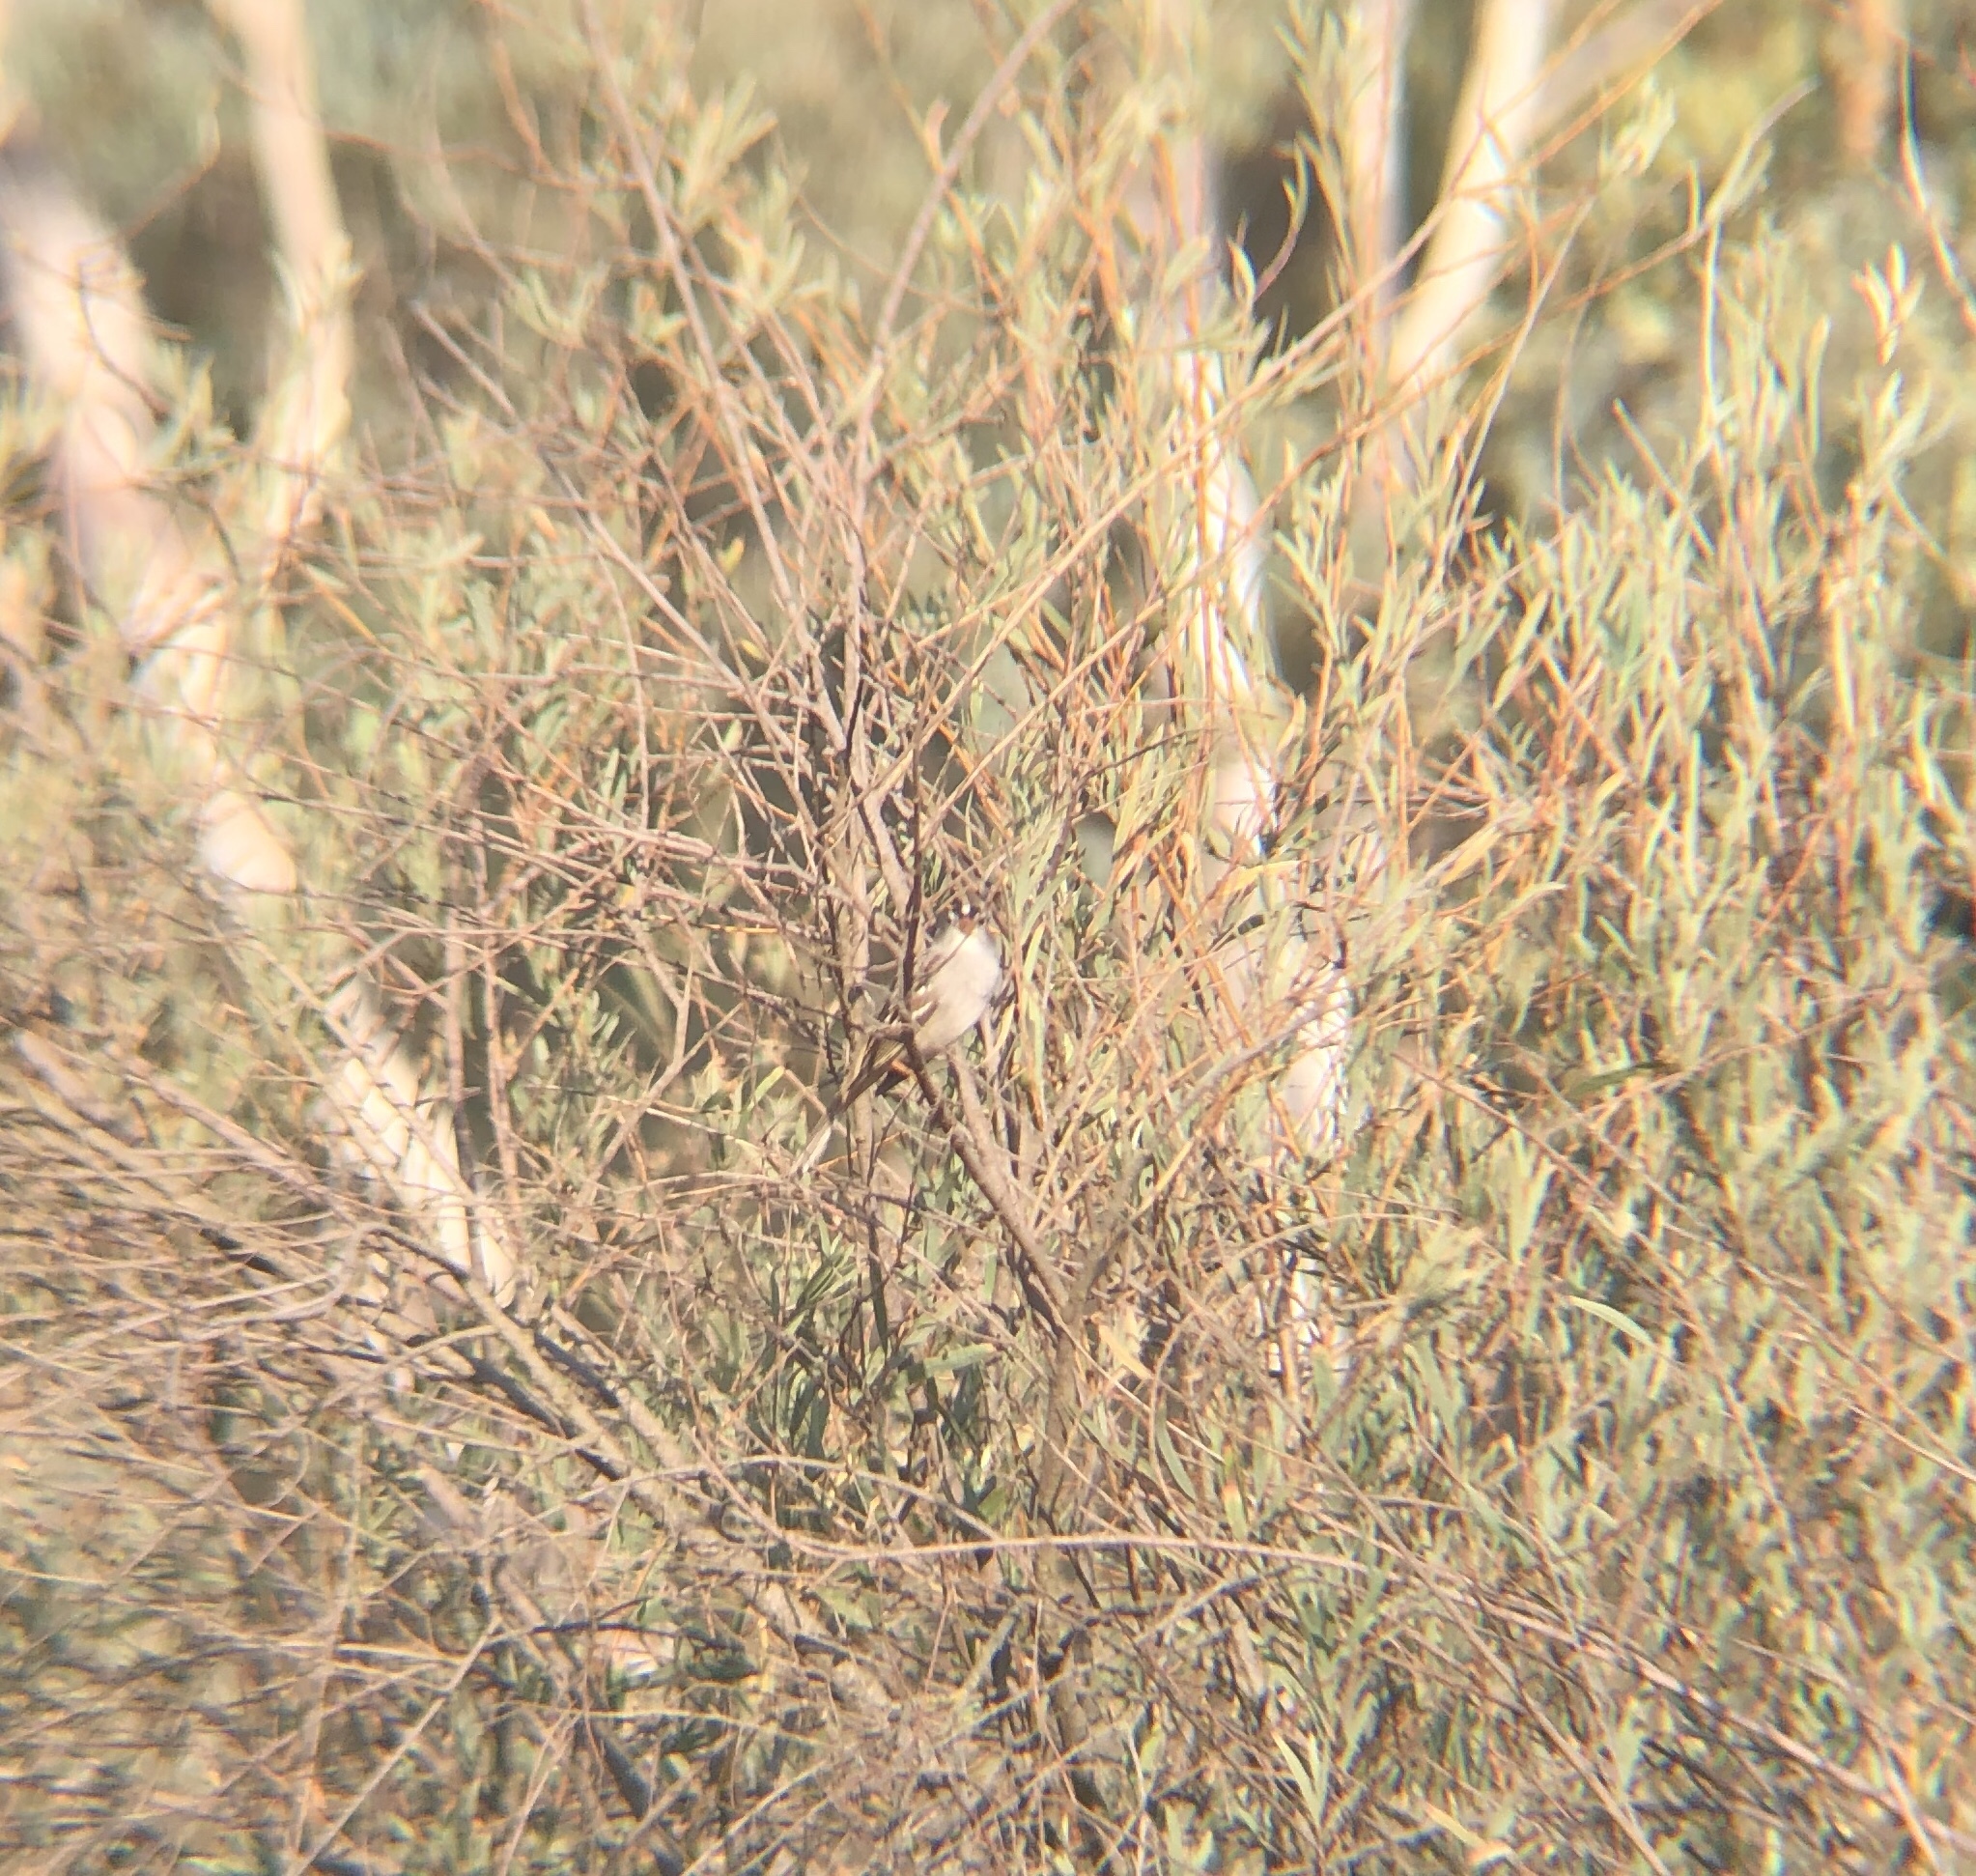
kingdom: Animalia
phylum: Chordata
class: Aves
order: Passeriformes
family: Passerellidae
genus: Zonotrichia
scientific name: Zonotrichia leucophrys
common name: White-crowned sparrow
